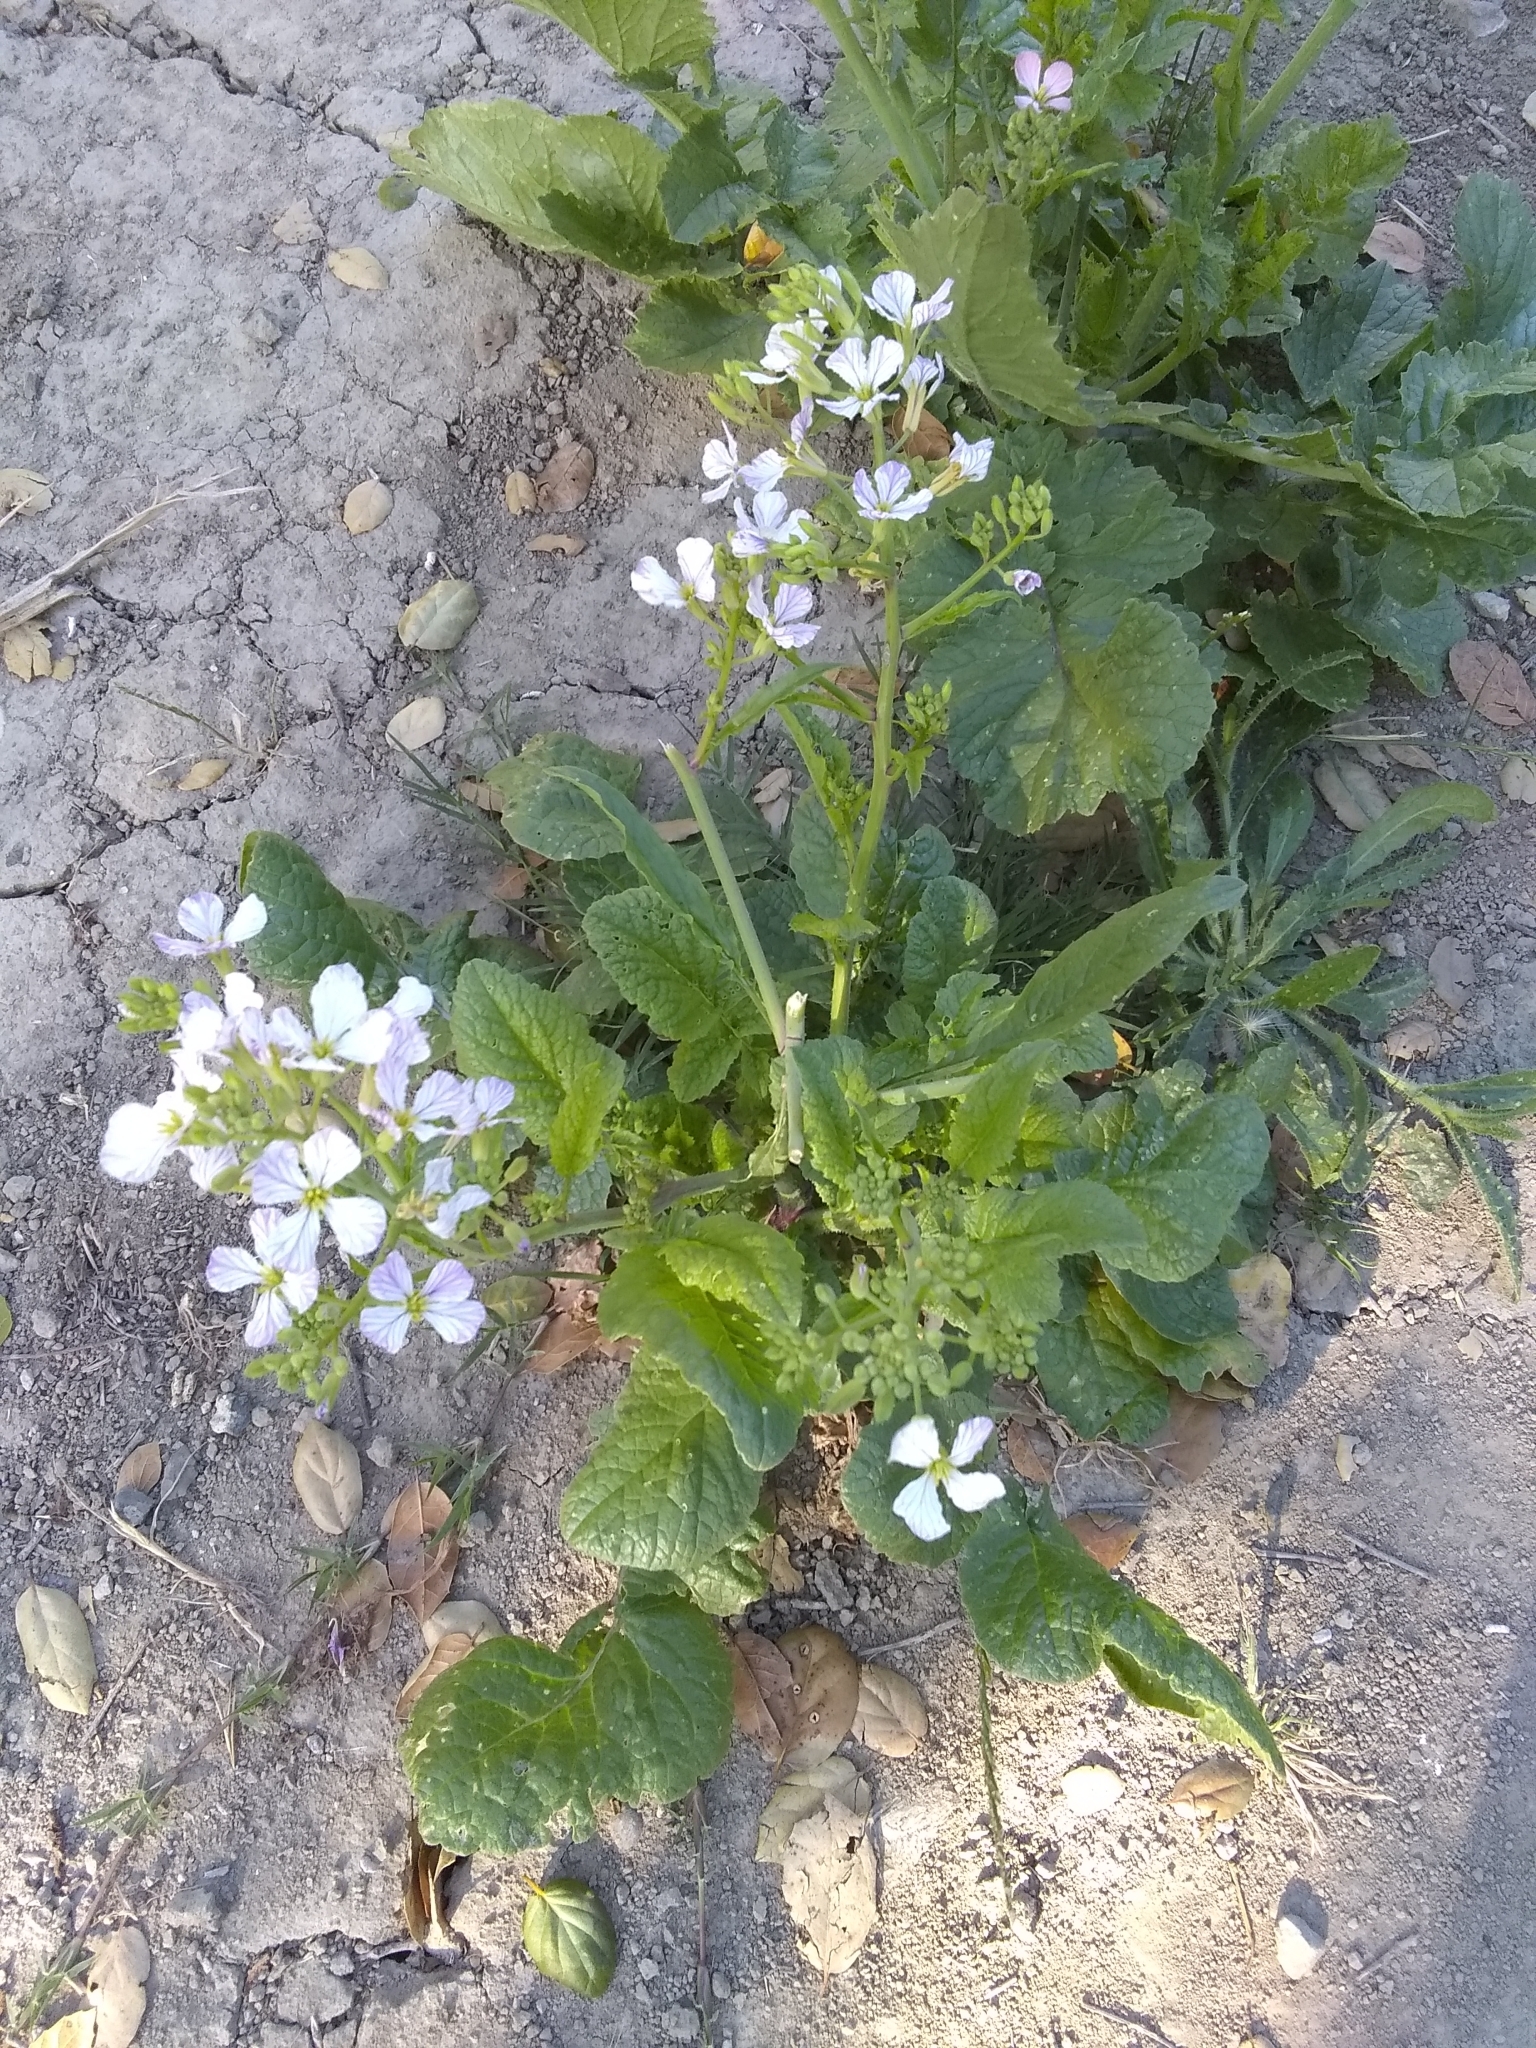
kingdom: Plantae
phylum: Tracheophyta
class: Magnoliopsida
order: Brassicales
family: Brassicaceae
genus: Raphanus
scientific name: Raphanus sativus
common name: Cultivated radish
